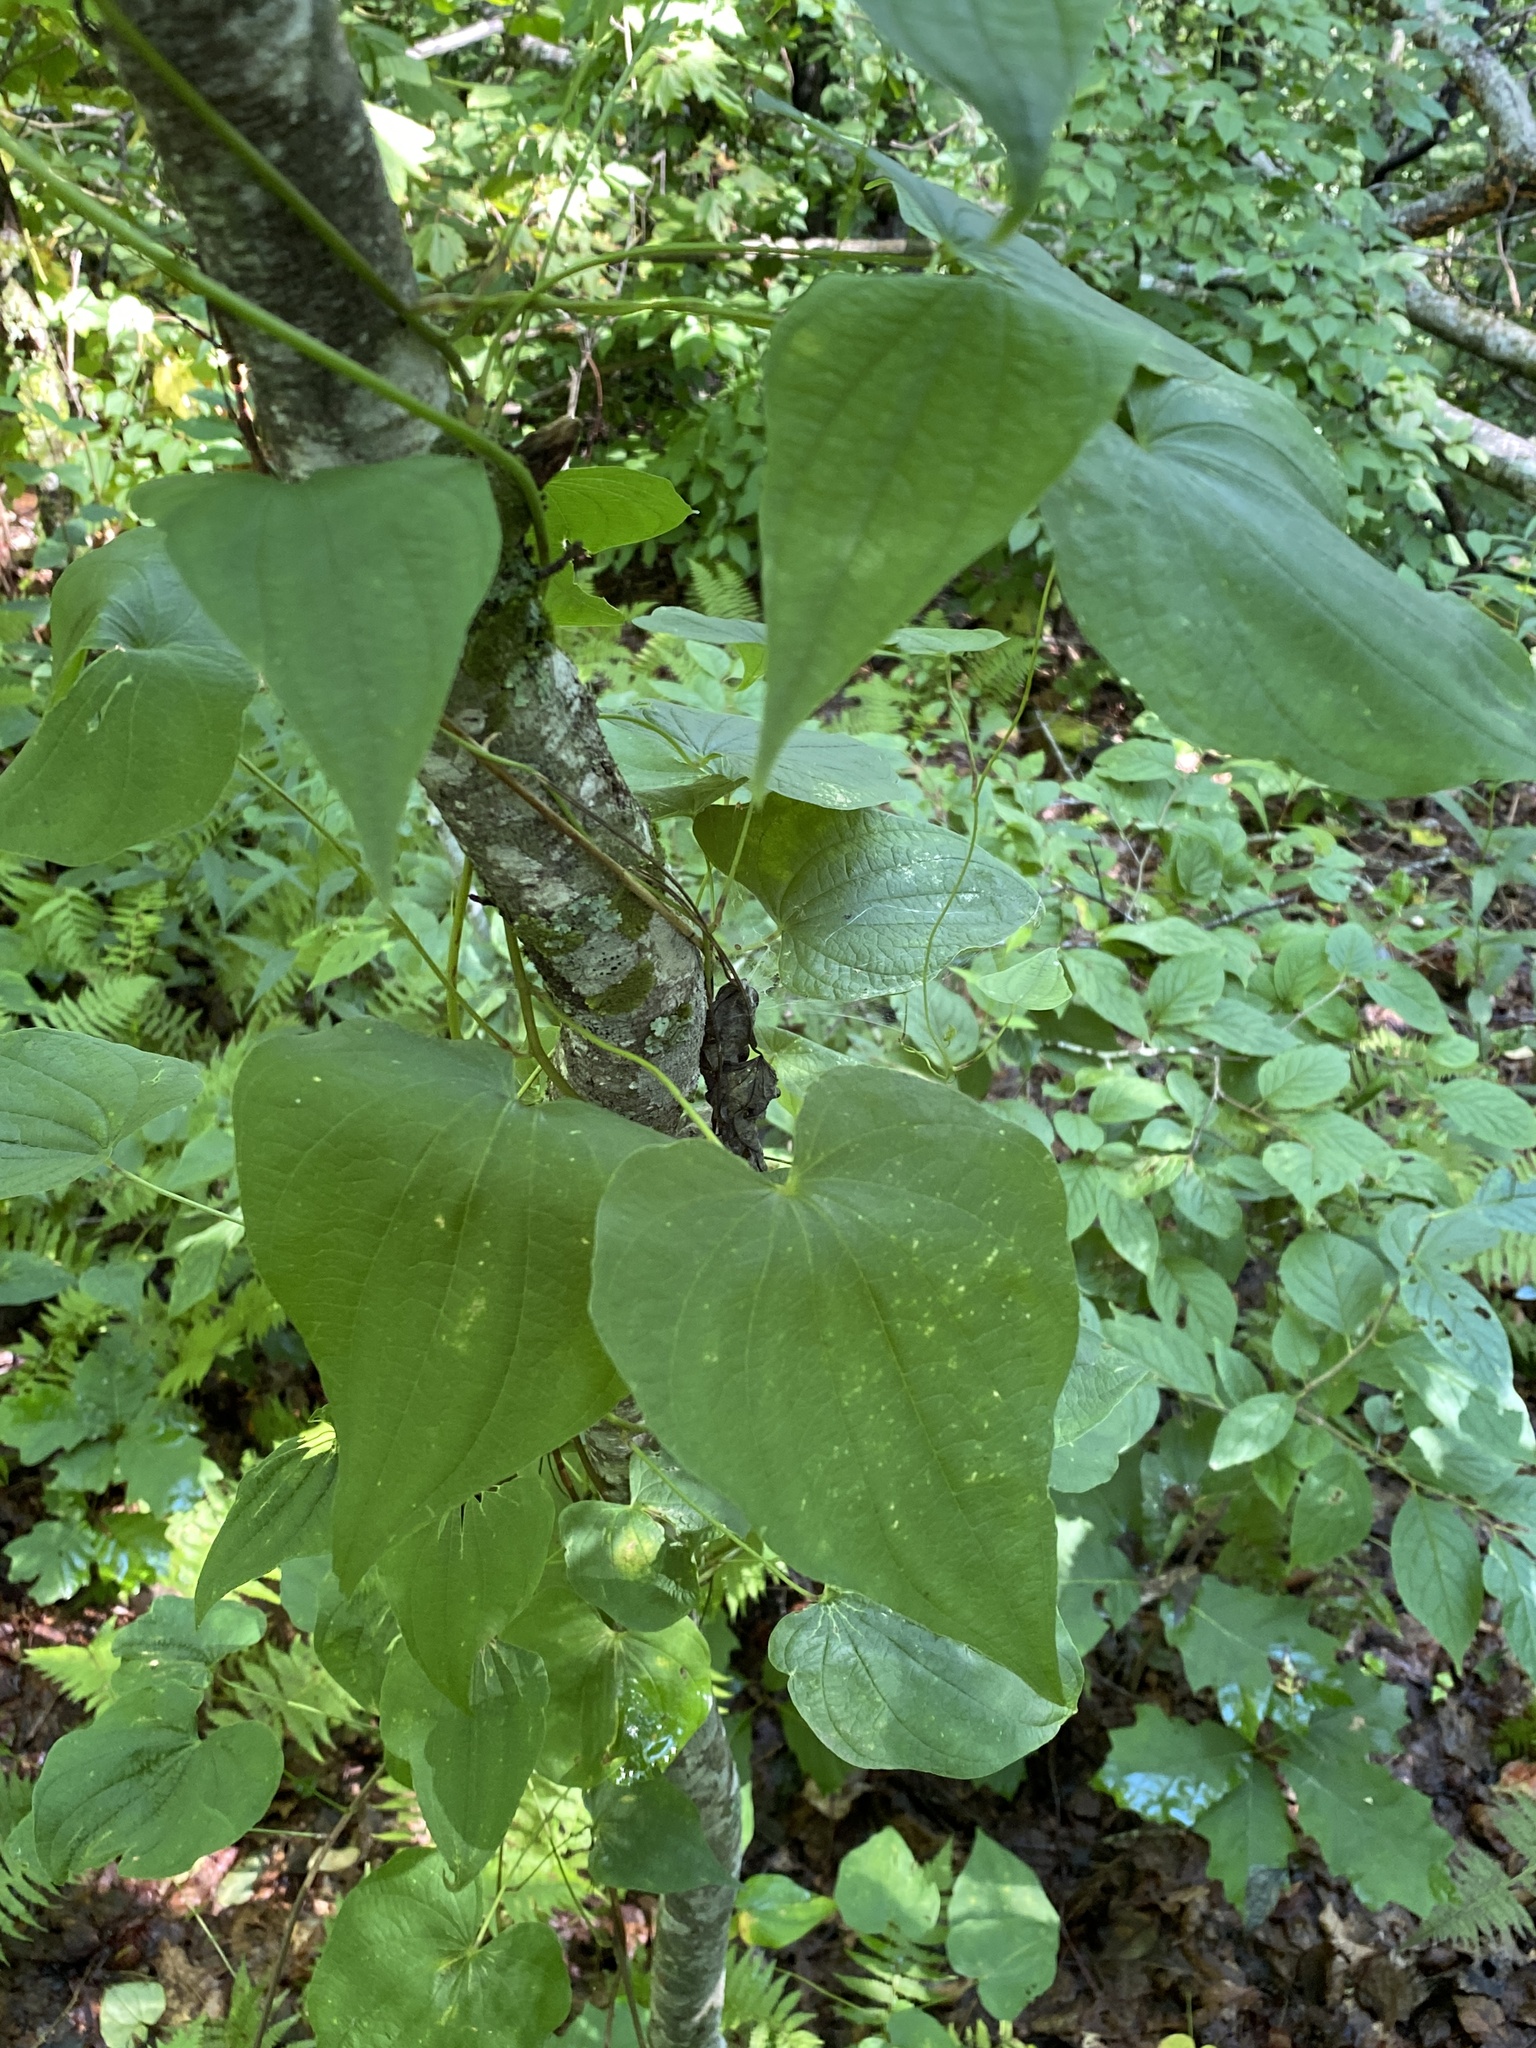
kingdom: Plantae
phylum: Tracheophyta
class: Liliopsida
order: Dioscoreales
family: Dioscoreaceae
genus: Dioscorea
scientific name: Dioscorea villosa
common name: Wild yam
